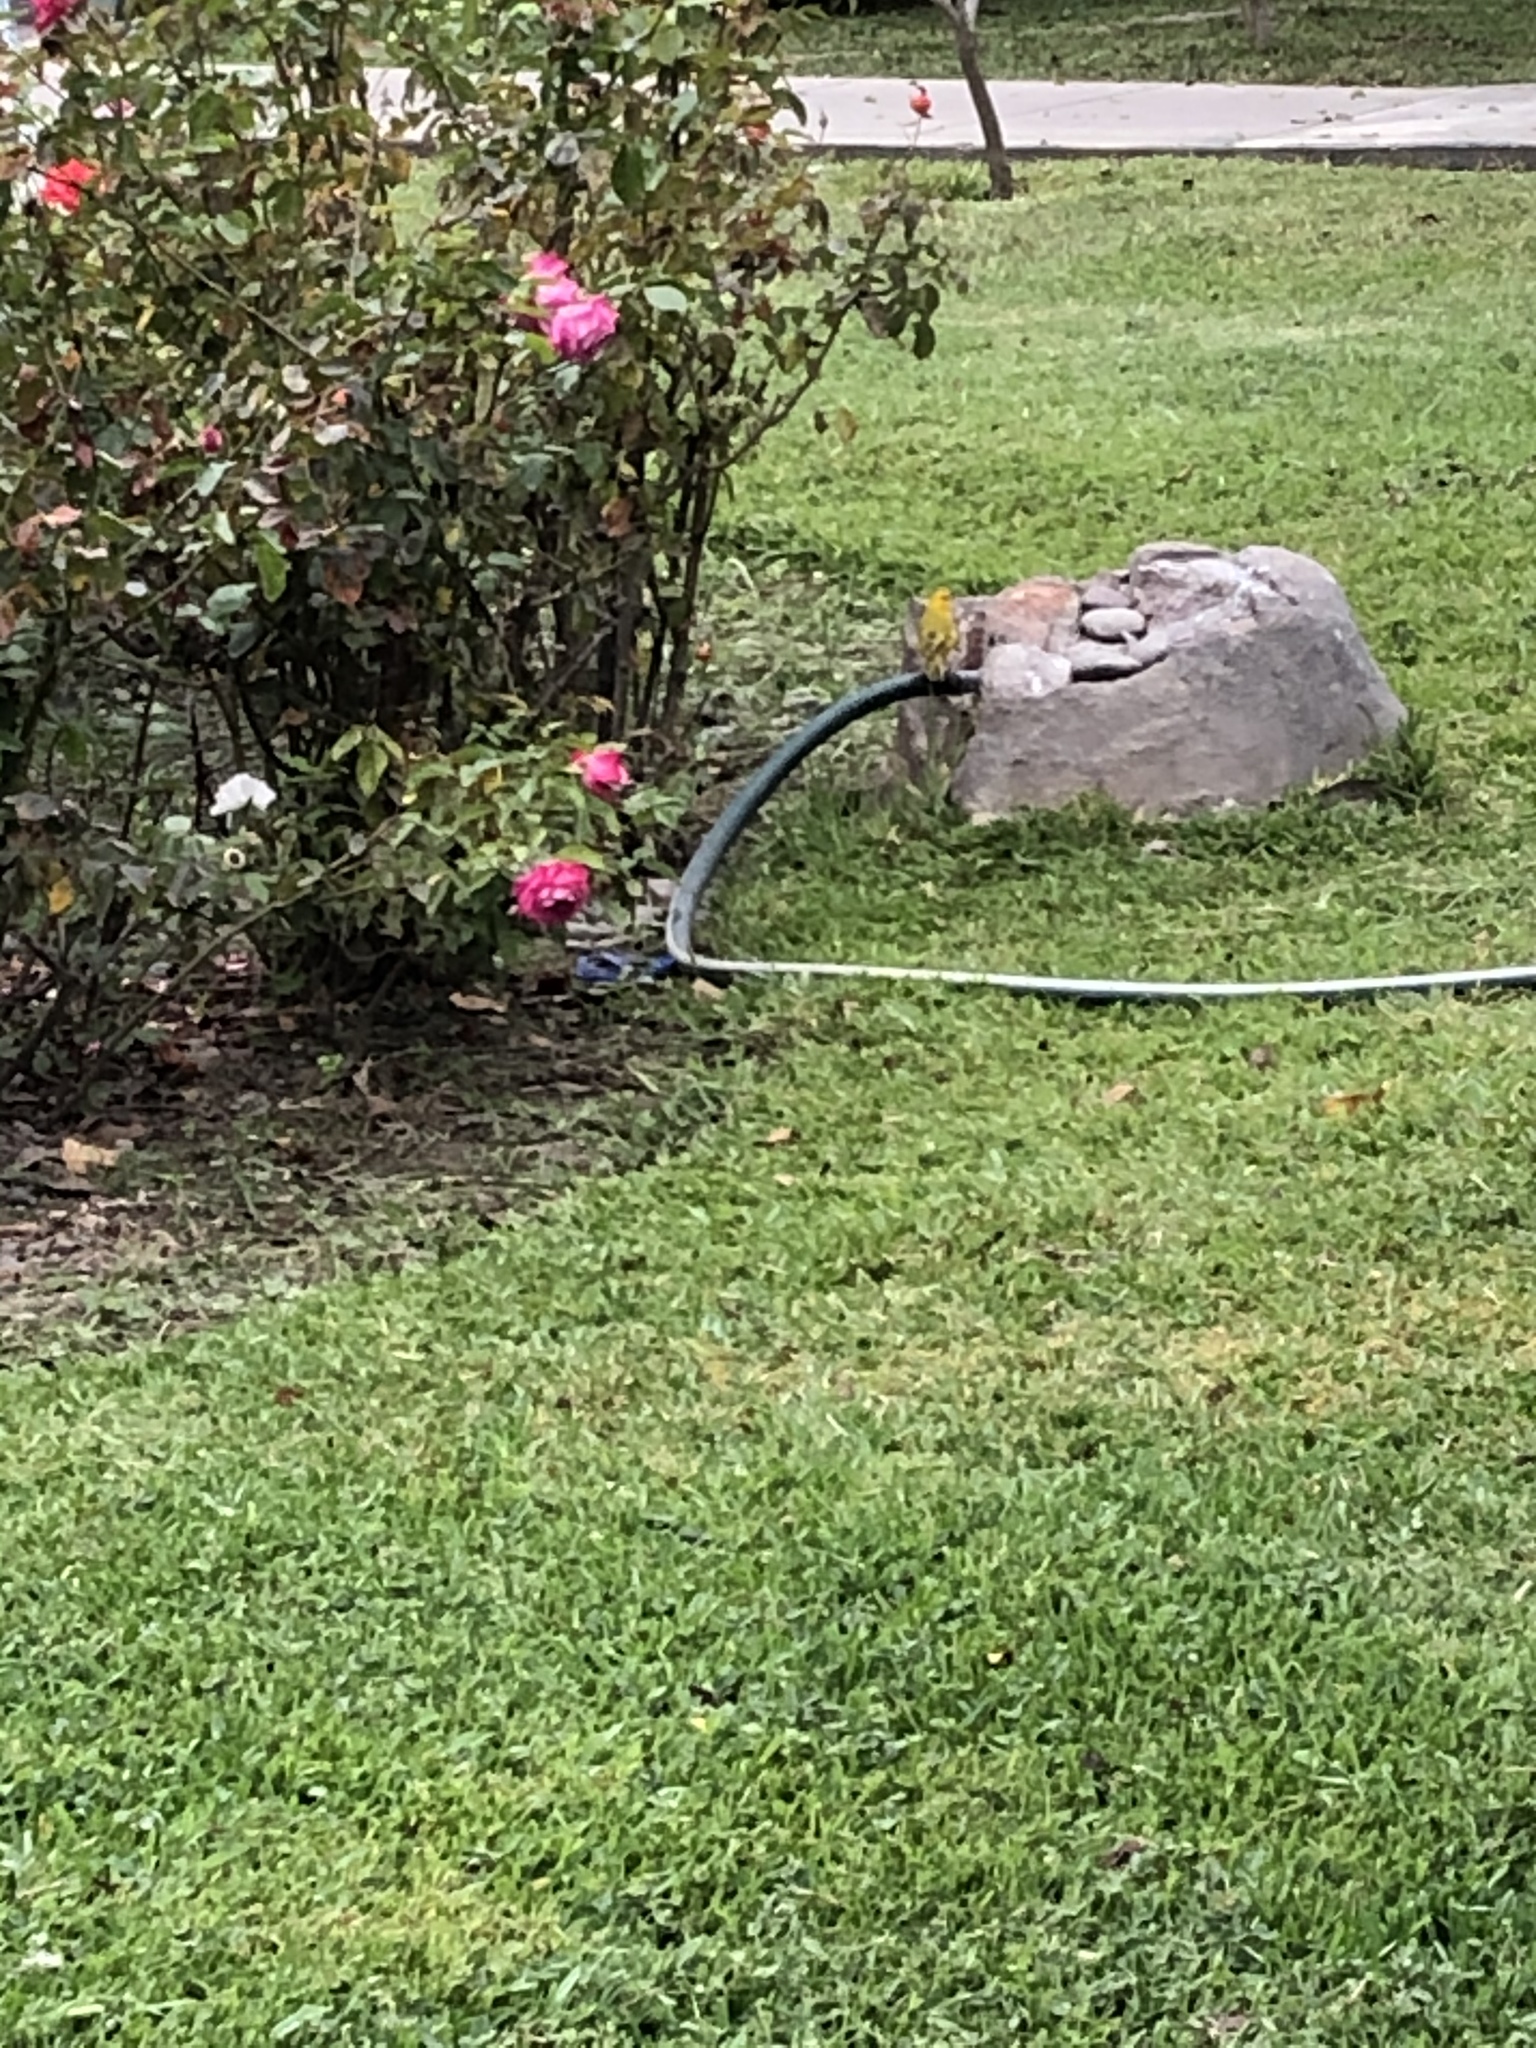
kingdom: Animalia
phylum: Chordata
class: Aves
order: Passeriformes
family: Thraupidae
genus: Sicalis
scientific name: Sicalis flaveola
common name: Saffron finch
